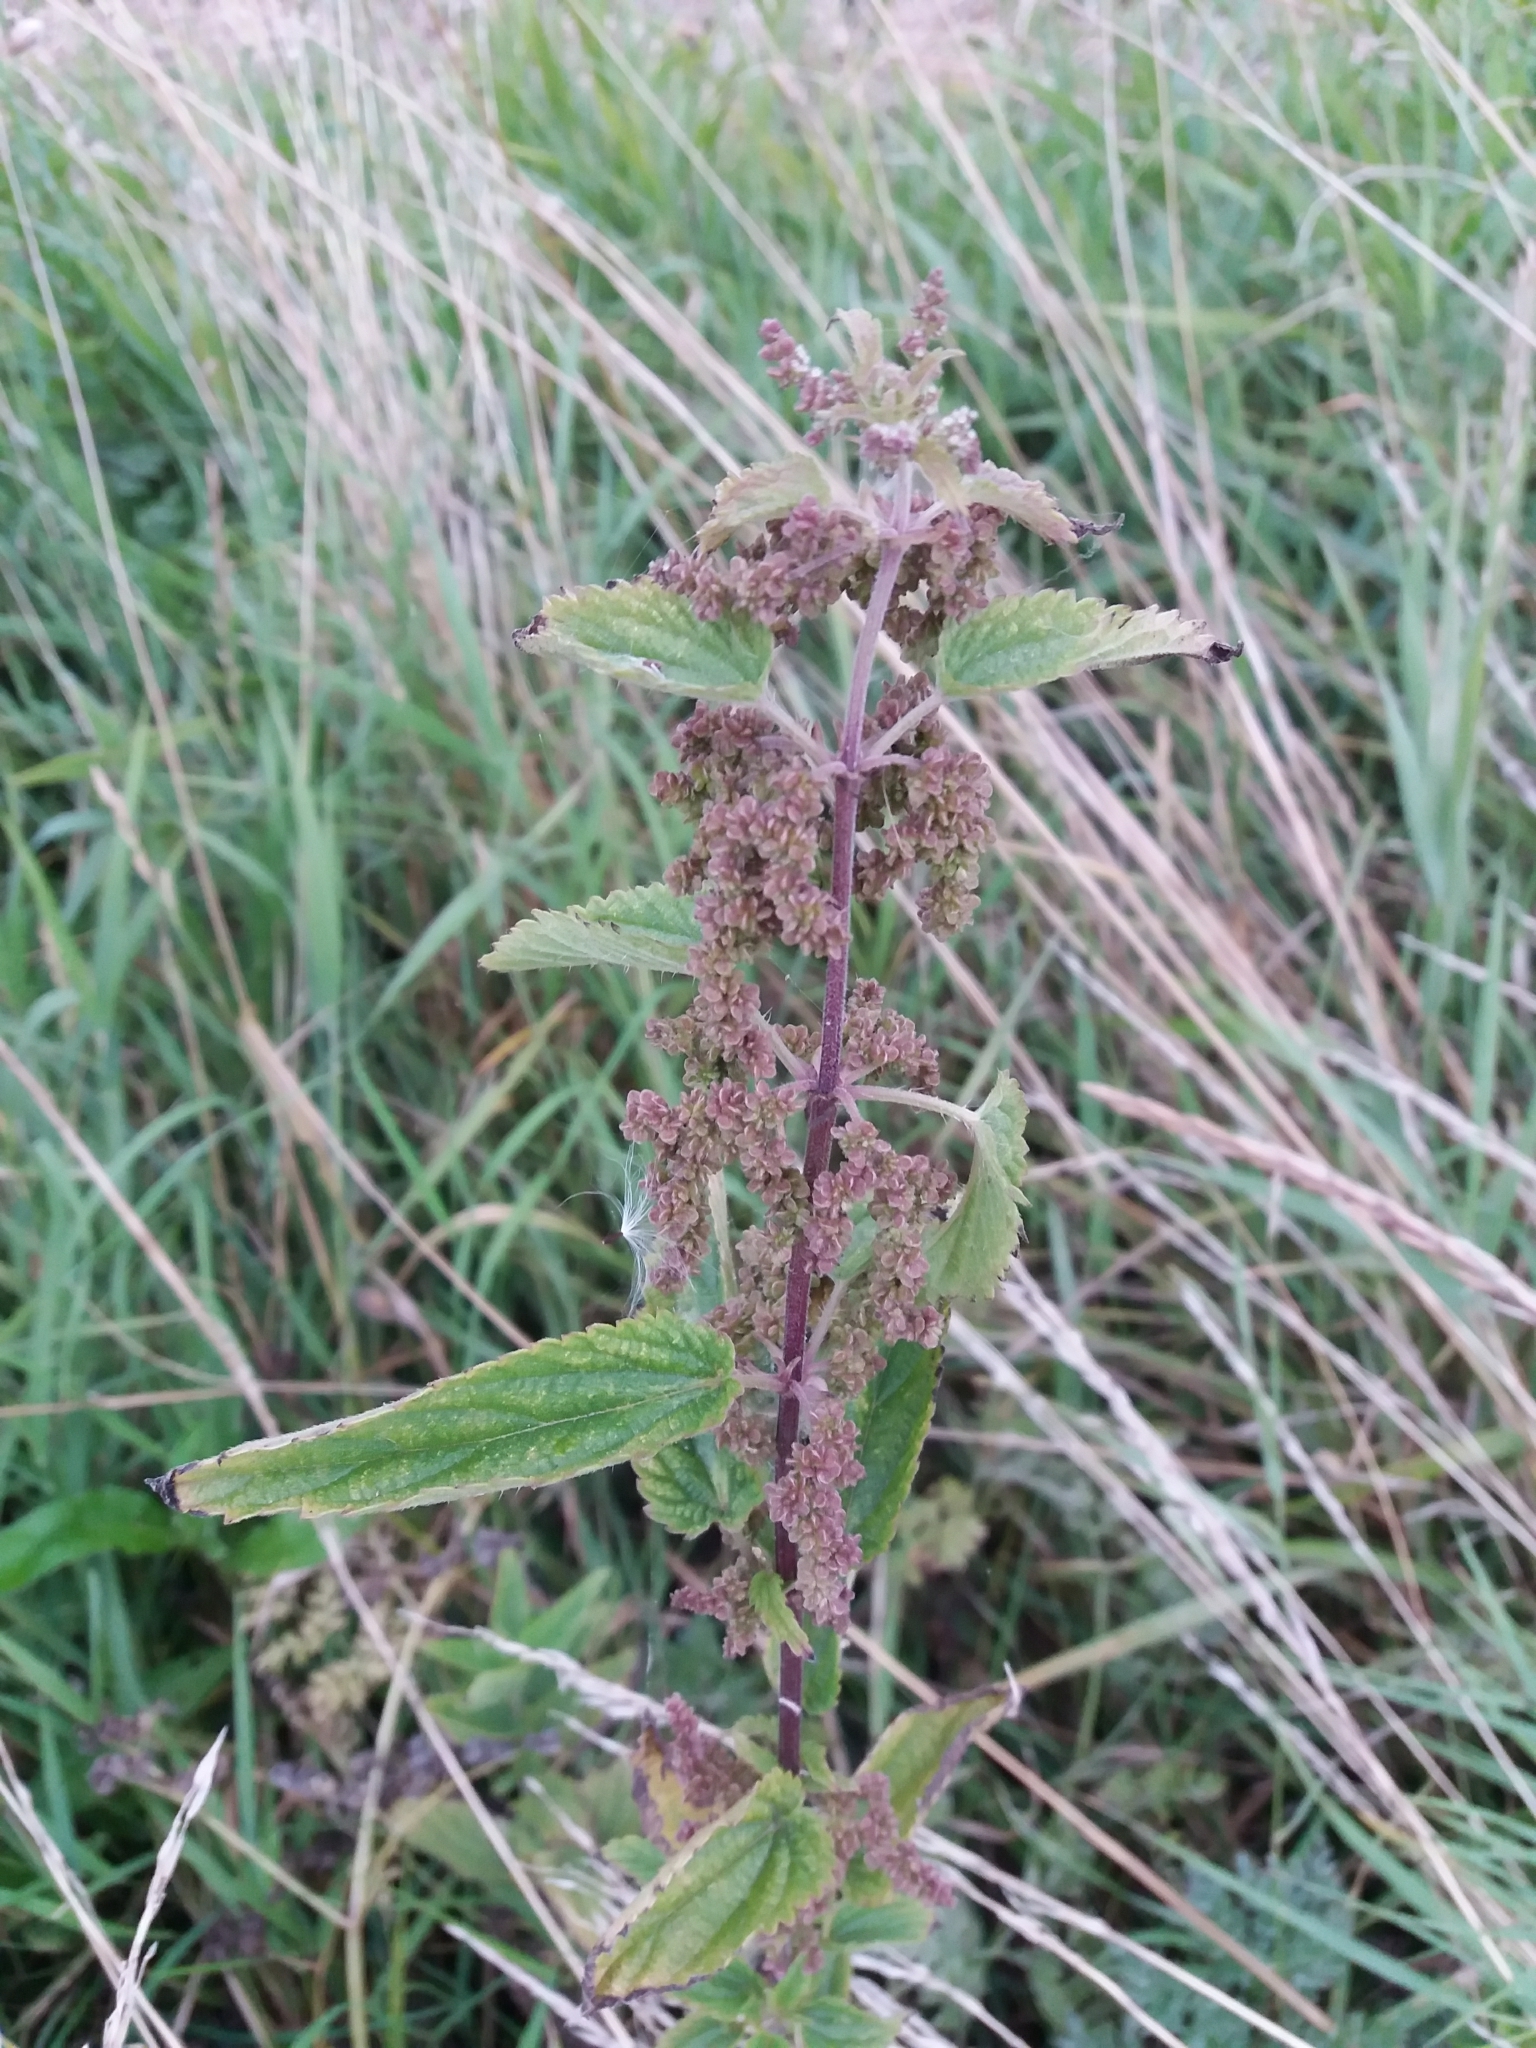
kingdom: Plantae
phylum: Tracheophyta
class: Magnoliopsida
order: Rosales
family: Urticaceae
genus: Urtica
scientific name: Urtica dioica
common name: Common nettle
